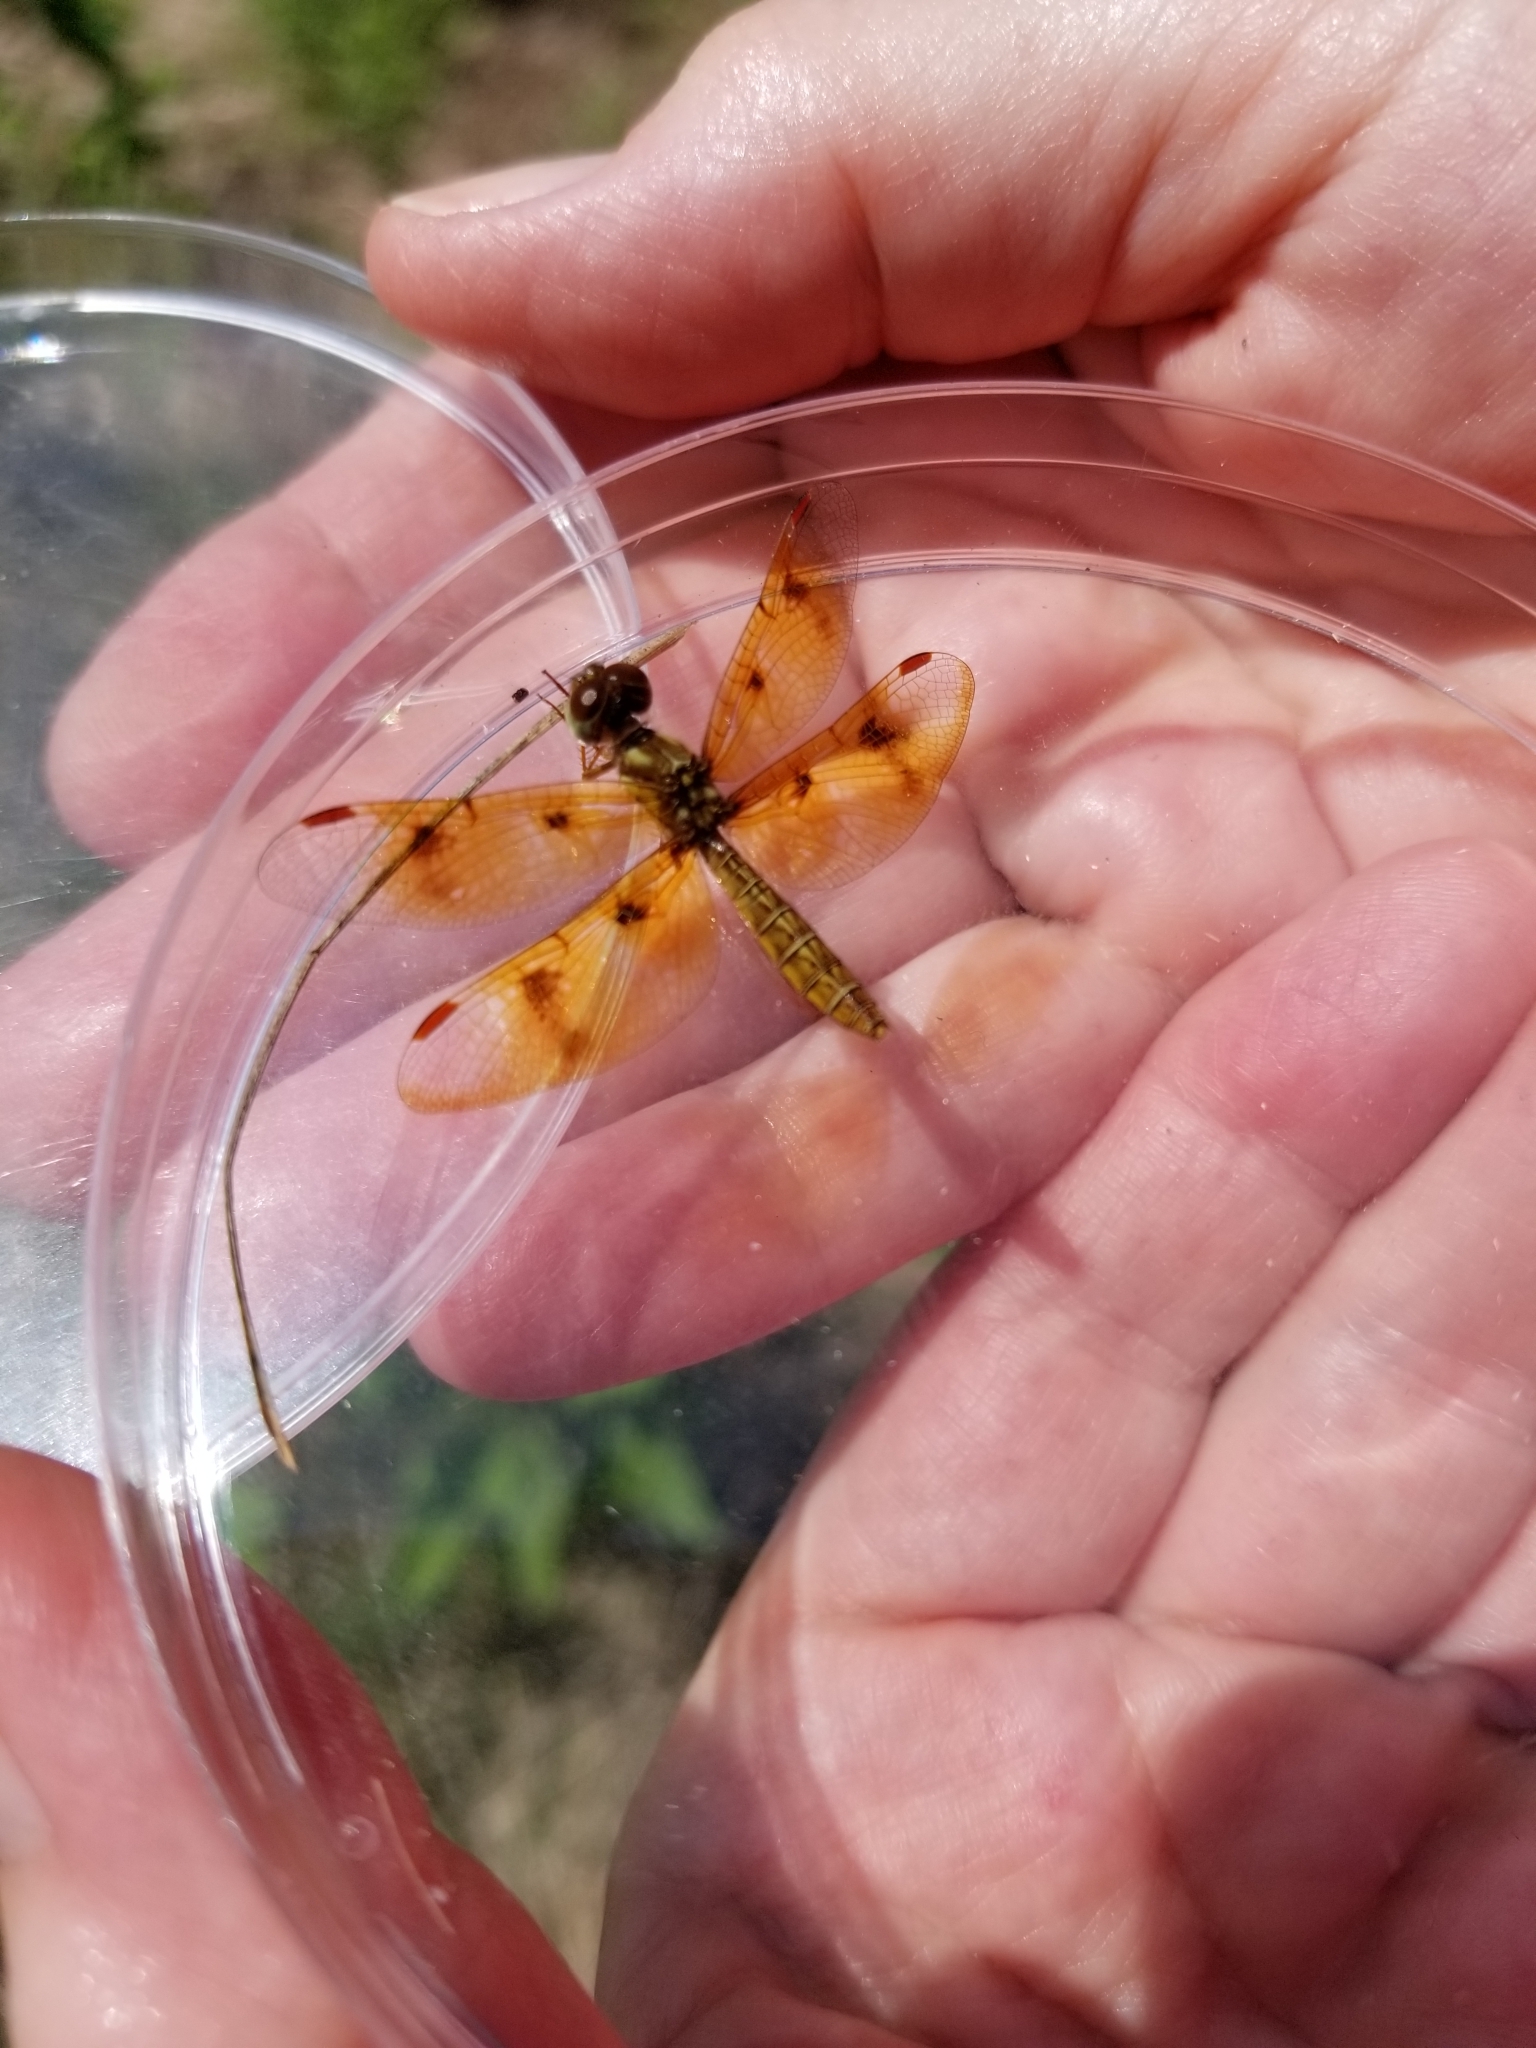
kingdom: Animalia
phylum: Arthropoda
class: Insecta
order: Odonata
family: Libellulidae
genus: Perithemis
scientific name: Perithemis tenera
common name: Eastern amberwing
